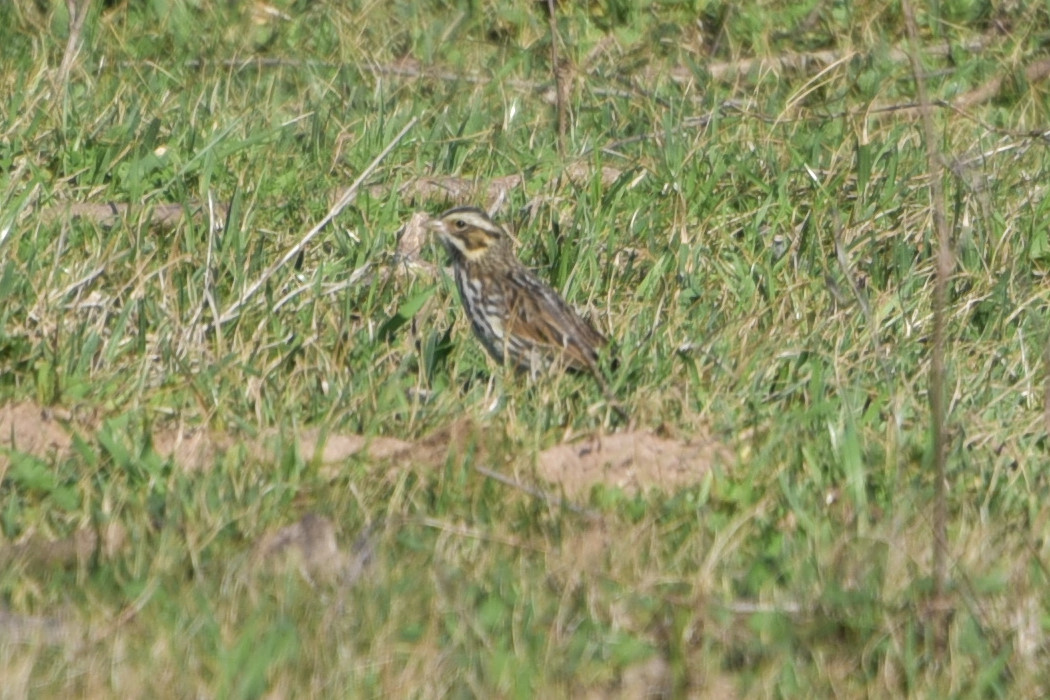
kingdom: Animalia
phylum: Chordata
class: Aves
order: Passeriformes
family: Passerellidae
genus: Passerculus
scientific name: Passerculus sandwichensis
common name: Savannah sparrow
